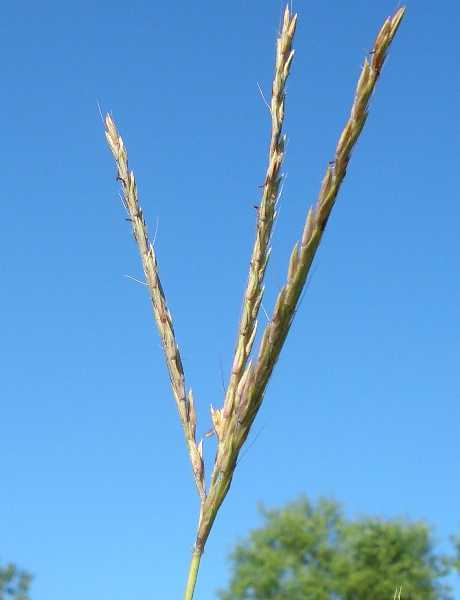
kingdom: Plantae
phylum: Tracheophyta
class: Liliopsida
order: Poales
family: Poaceae
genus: Andropogon
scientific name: Andropogon gerardi
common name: Big bluestem
